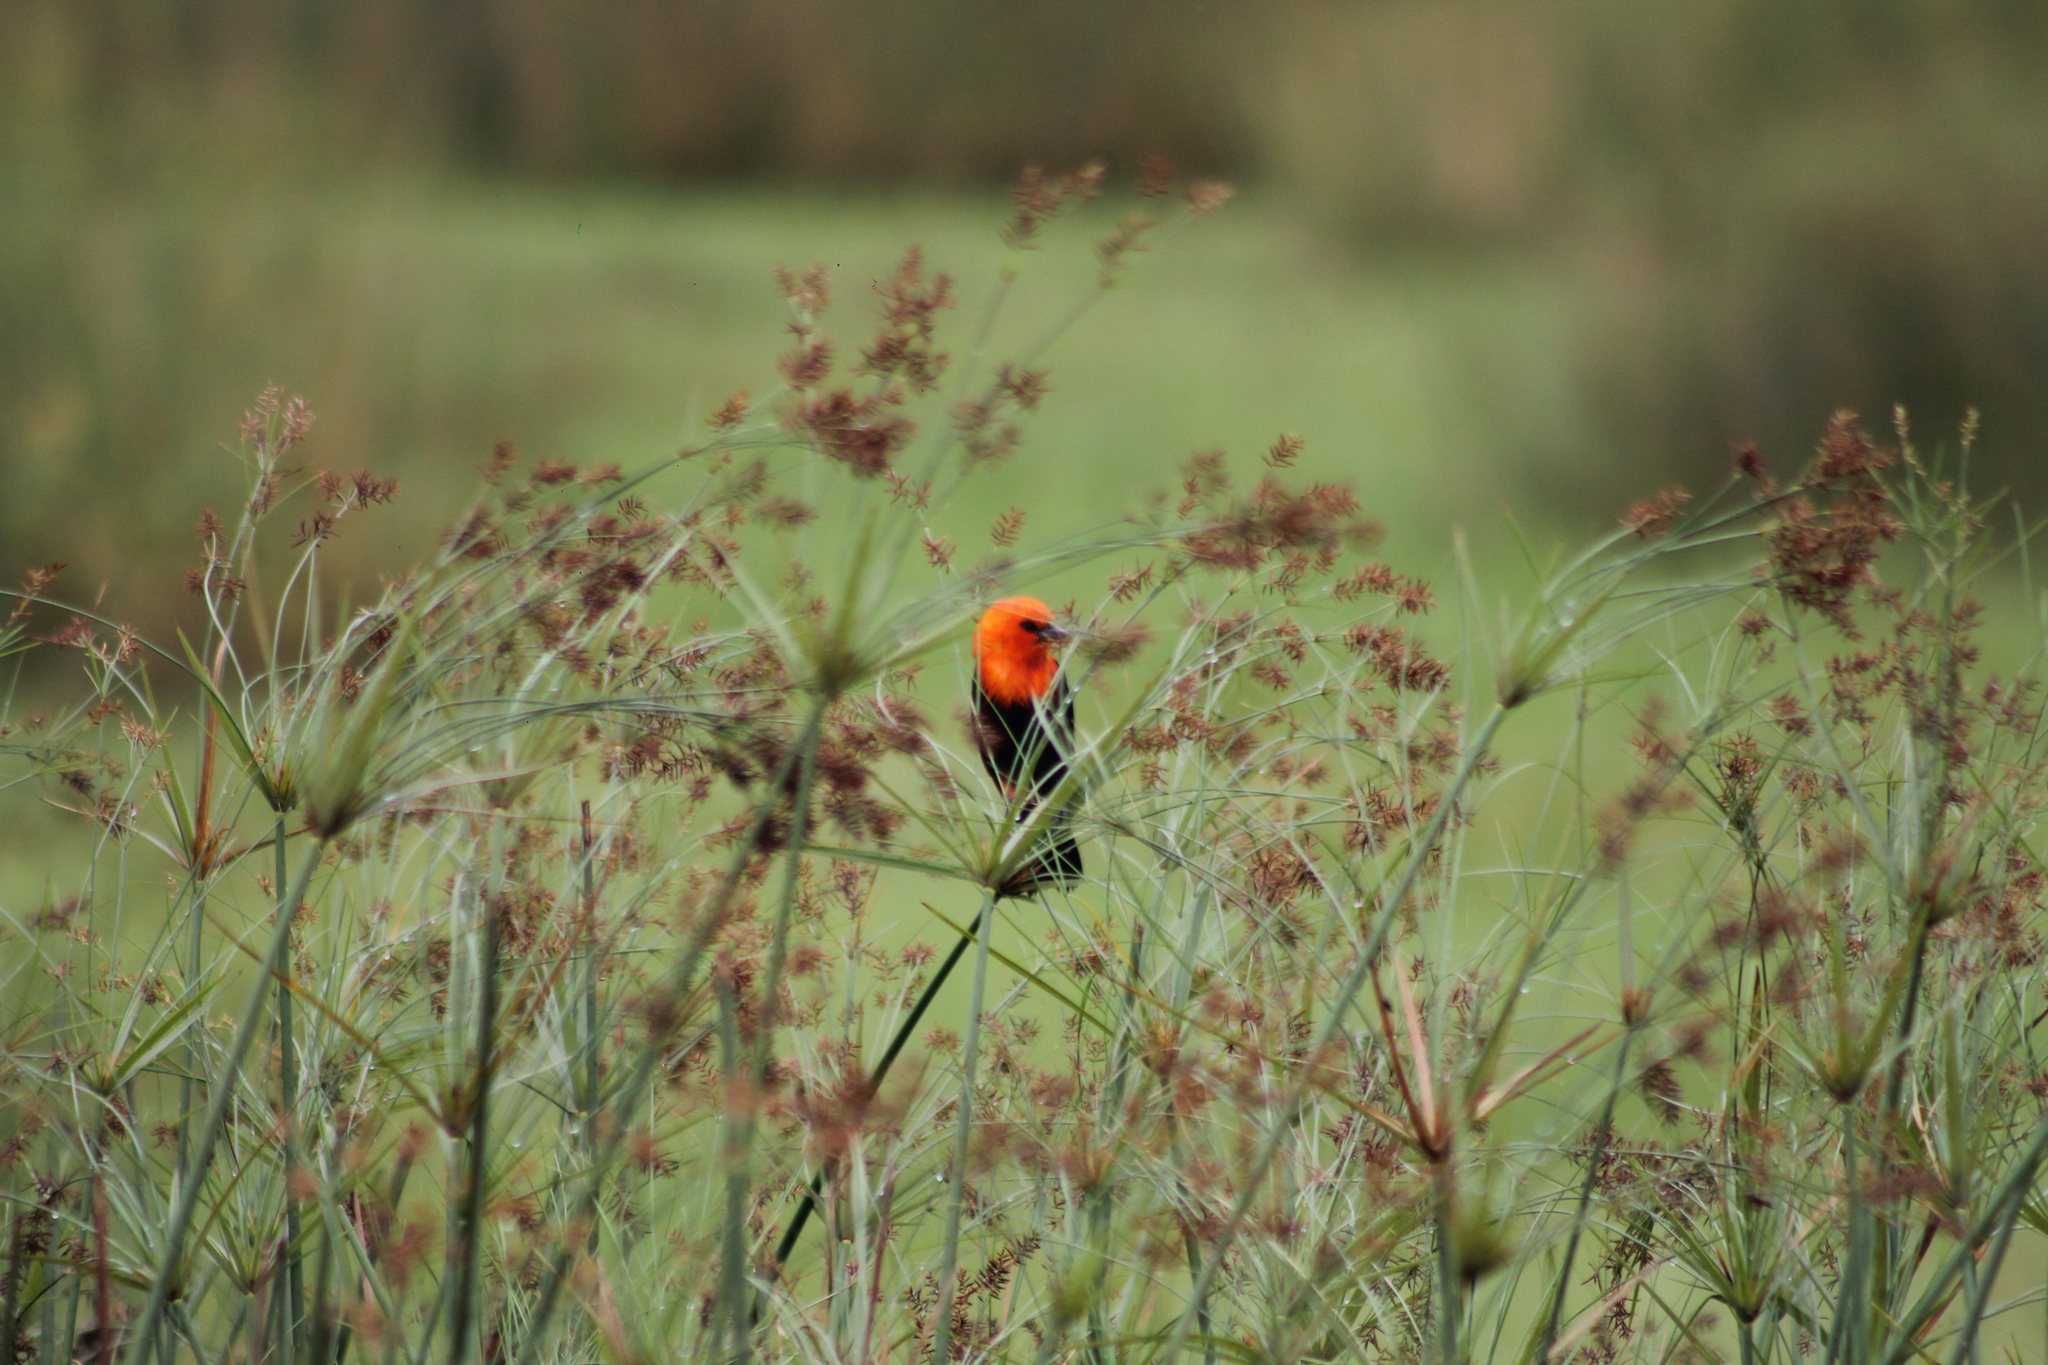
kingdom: Animalia
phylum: Chordata
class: Aves
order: Passeriformes
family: Icteridae
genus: Amblyramphus
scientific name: Amblyramphus holosericeus
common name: Scarlet-headed blackbird
